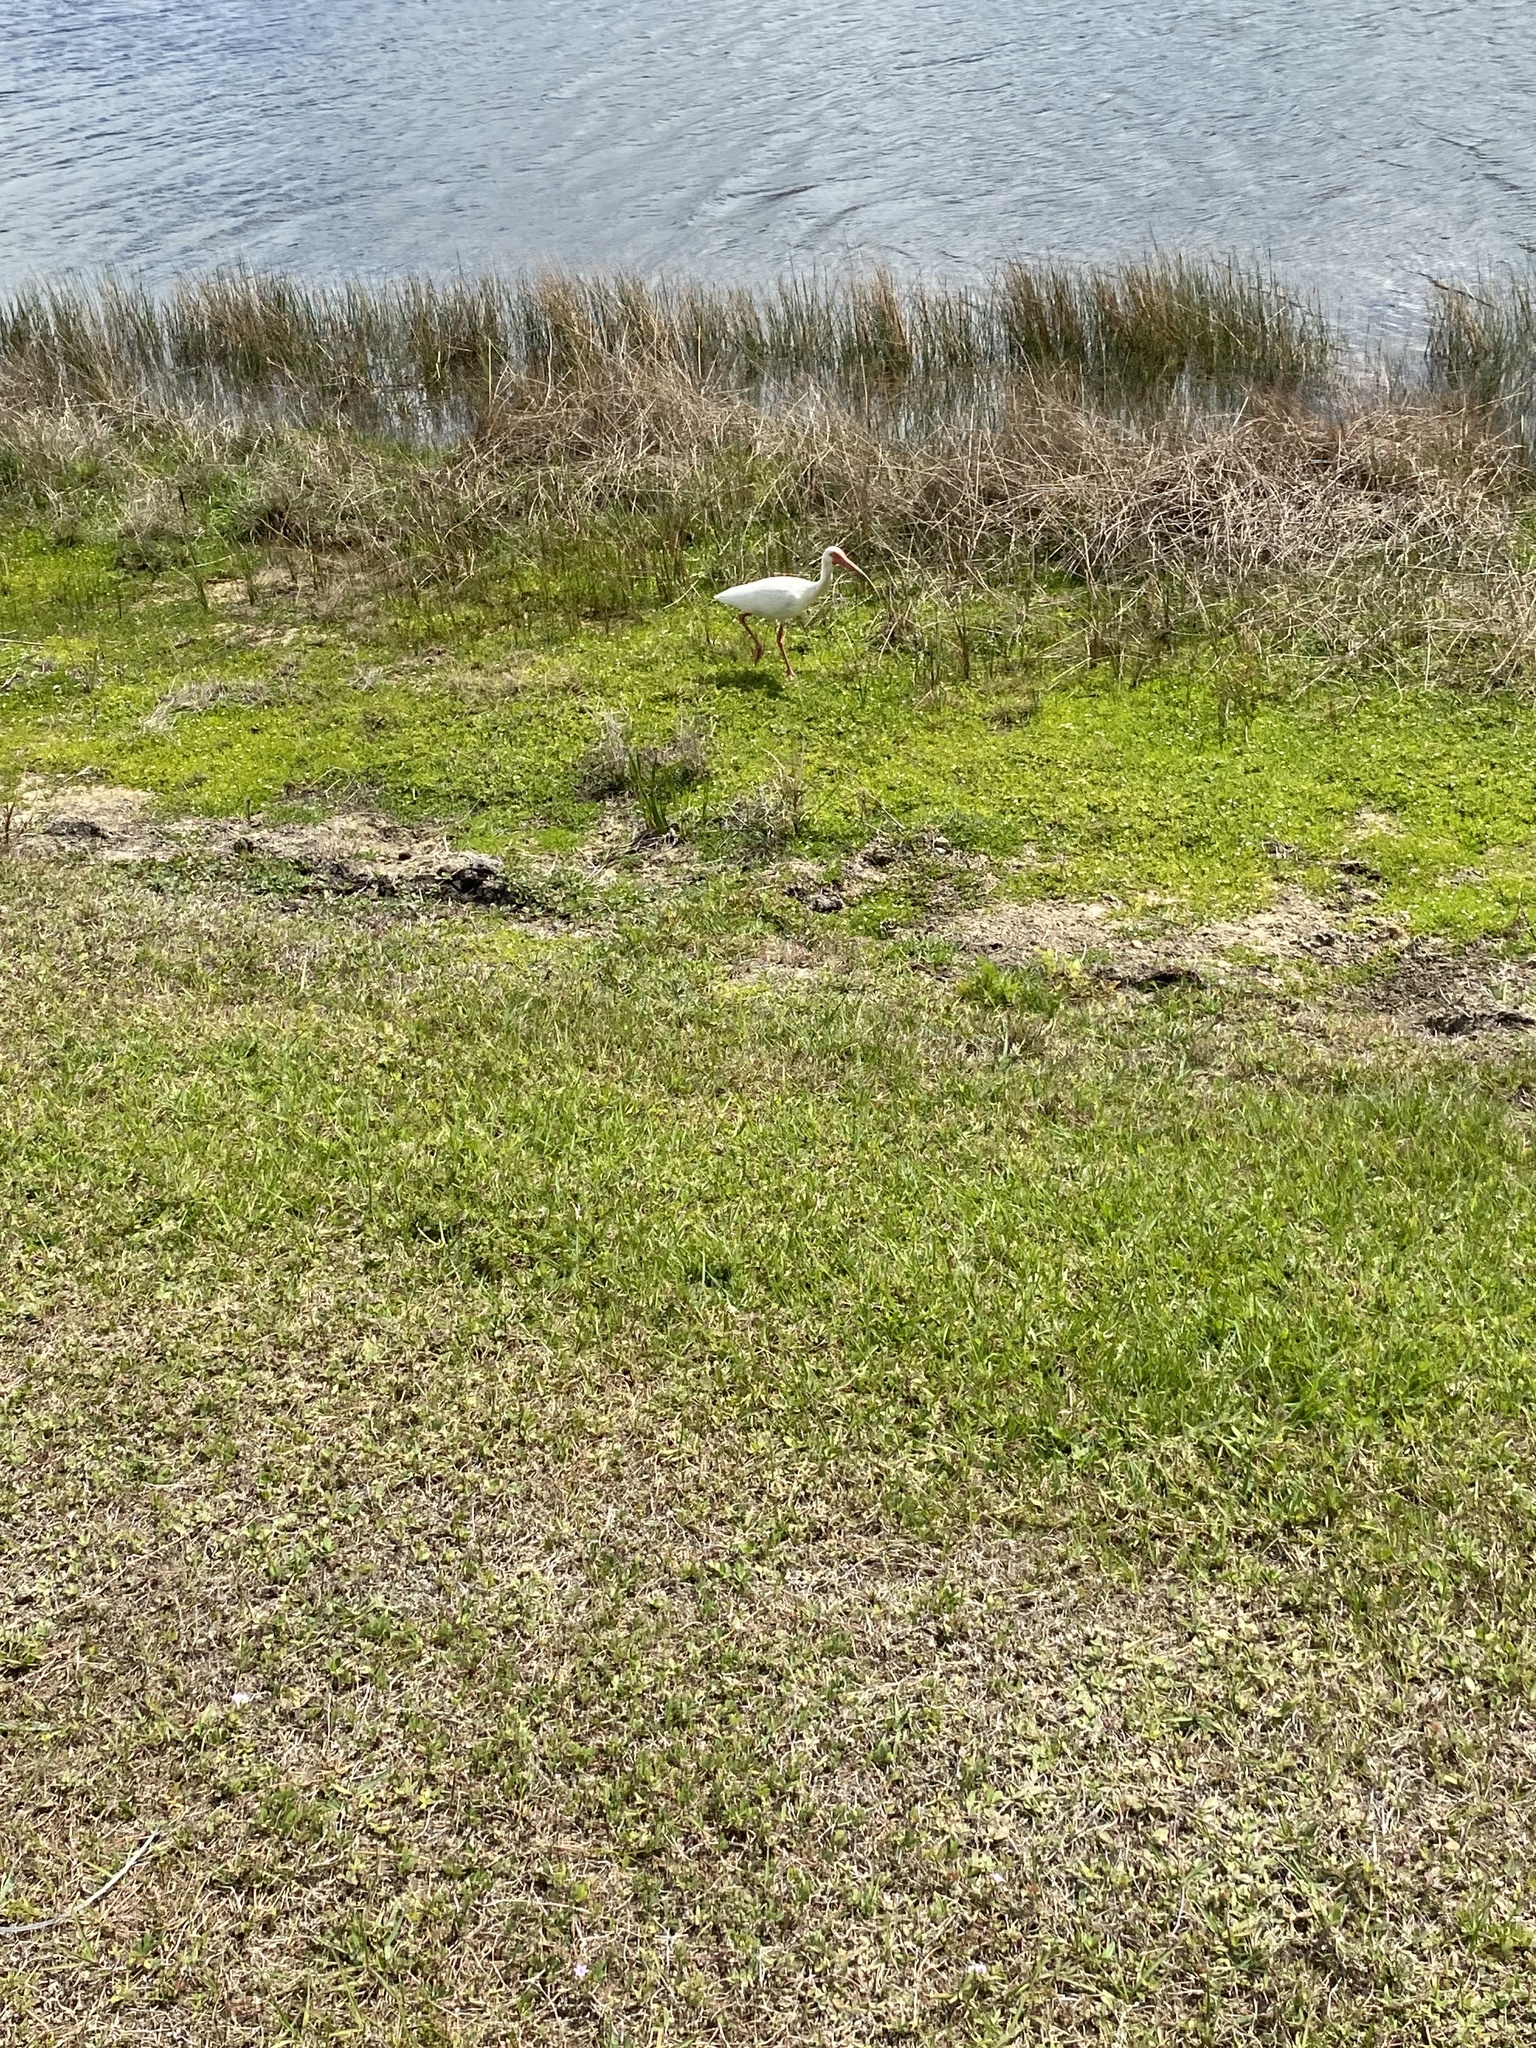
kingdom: Animalia
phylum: Chordata
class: Aves
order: Pelecaniformes
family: Threskiornithidae
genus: Eudocimus
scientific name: Eudocimus albus
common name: White ibis
